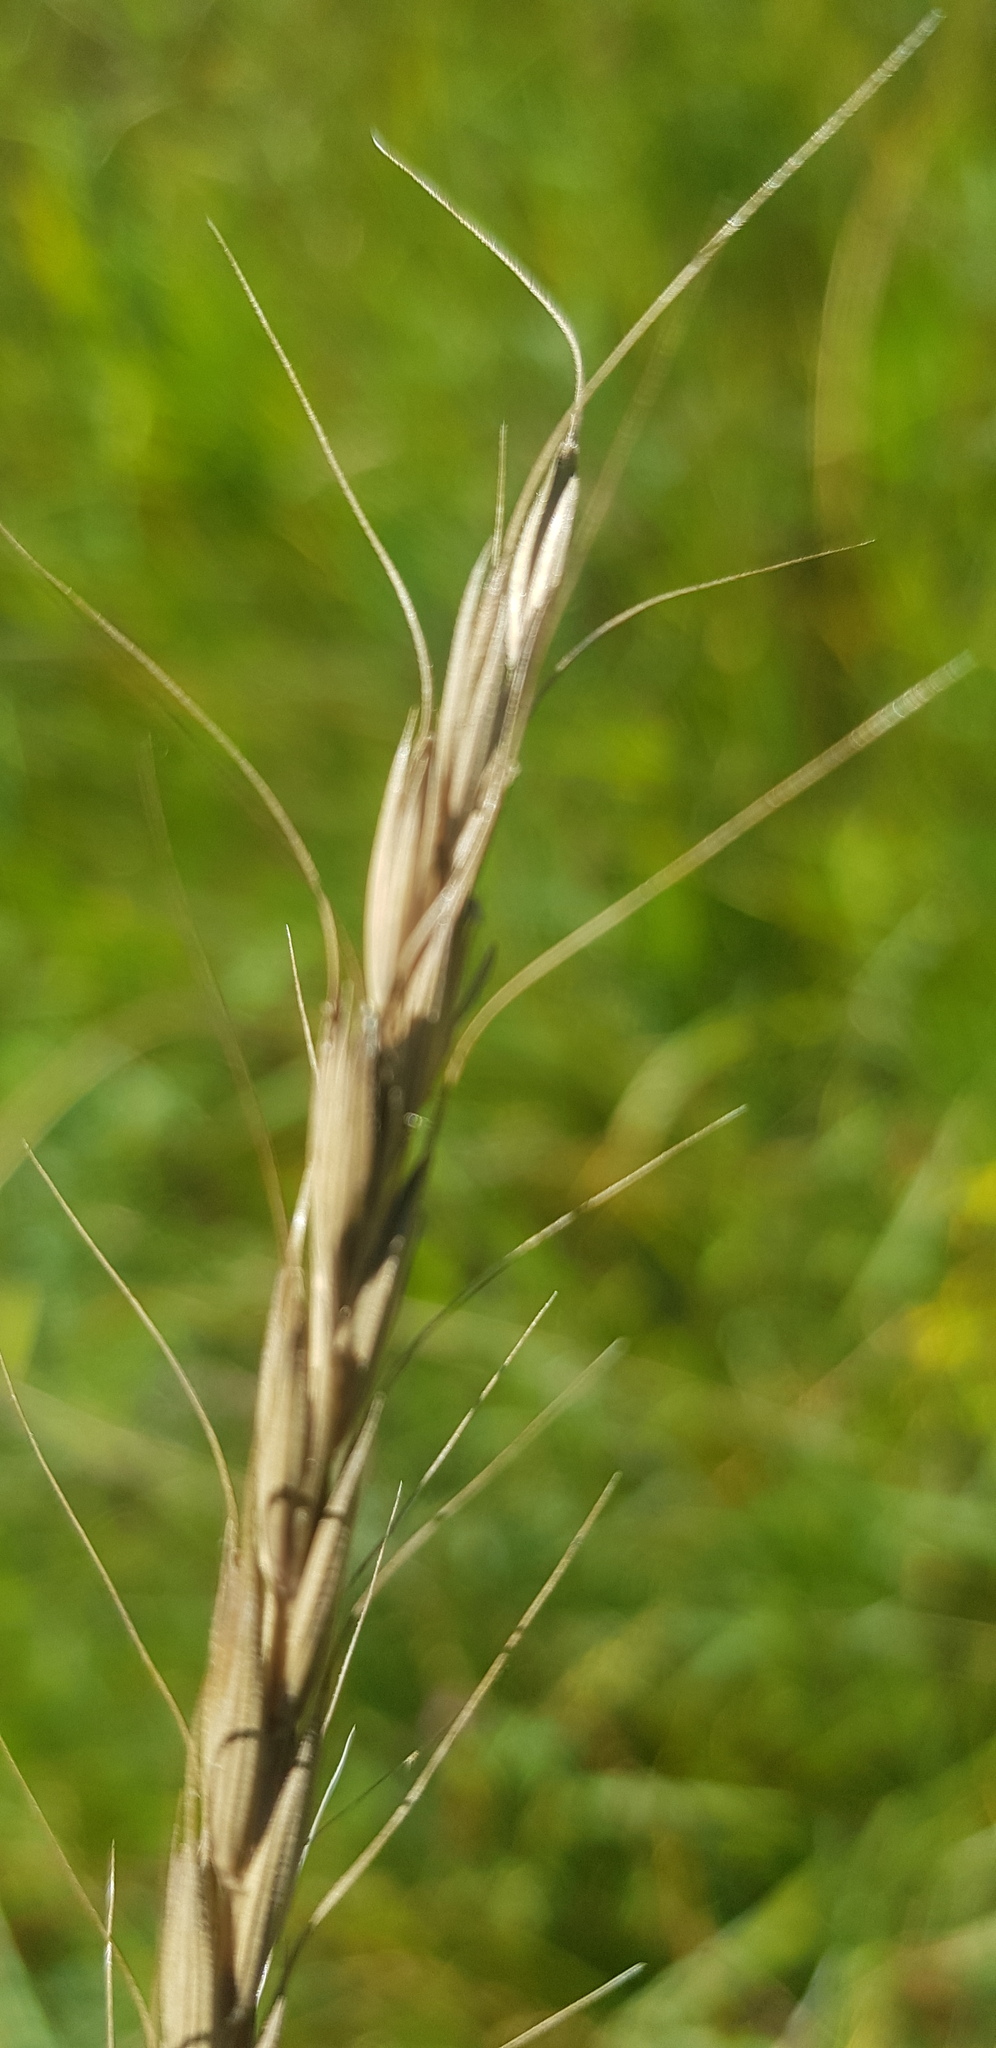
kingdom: Plantae
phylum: Tracheophyta
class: Liliopsida
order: Poales
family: Poaceae
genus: Elymus
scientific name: Elymus sibiricus
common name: Siberian wildrye
